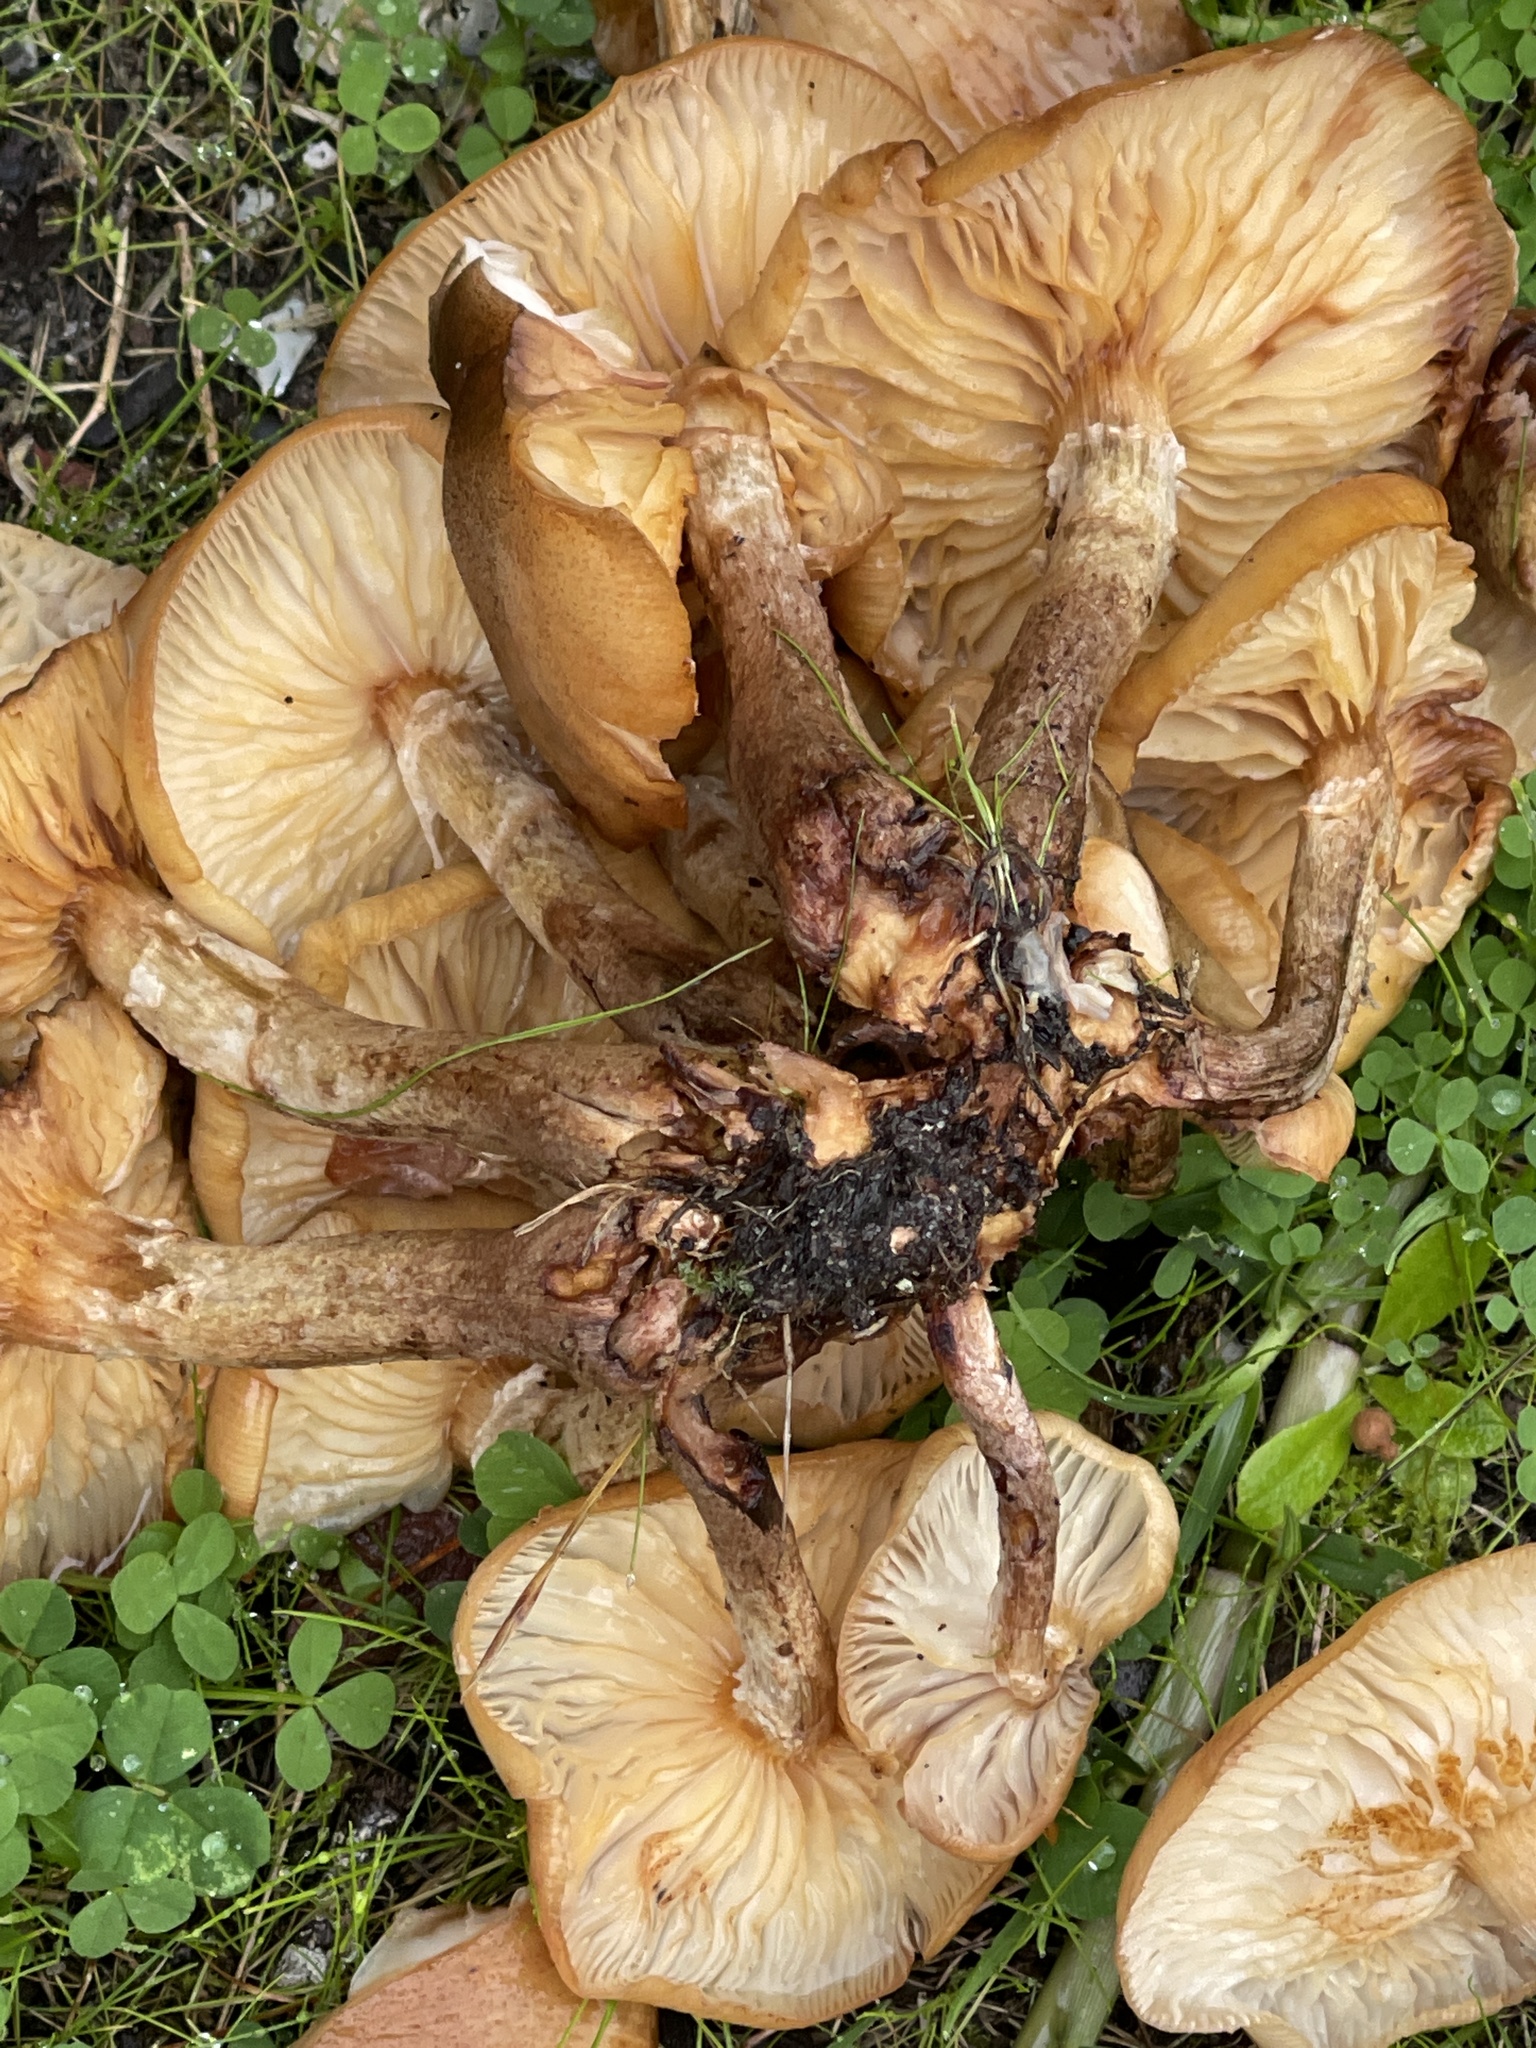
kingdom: Fungi
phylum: Basidiomycota
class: Agaricomycetes
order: Agaricales
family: Physalacriaceae
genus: Armillaria
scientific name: Armillaria luteobubalina
